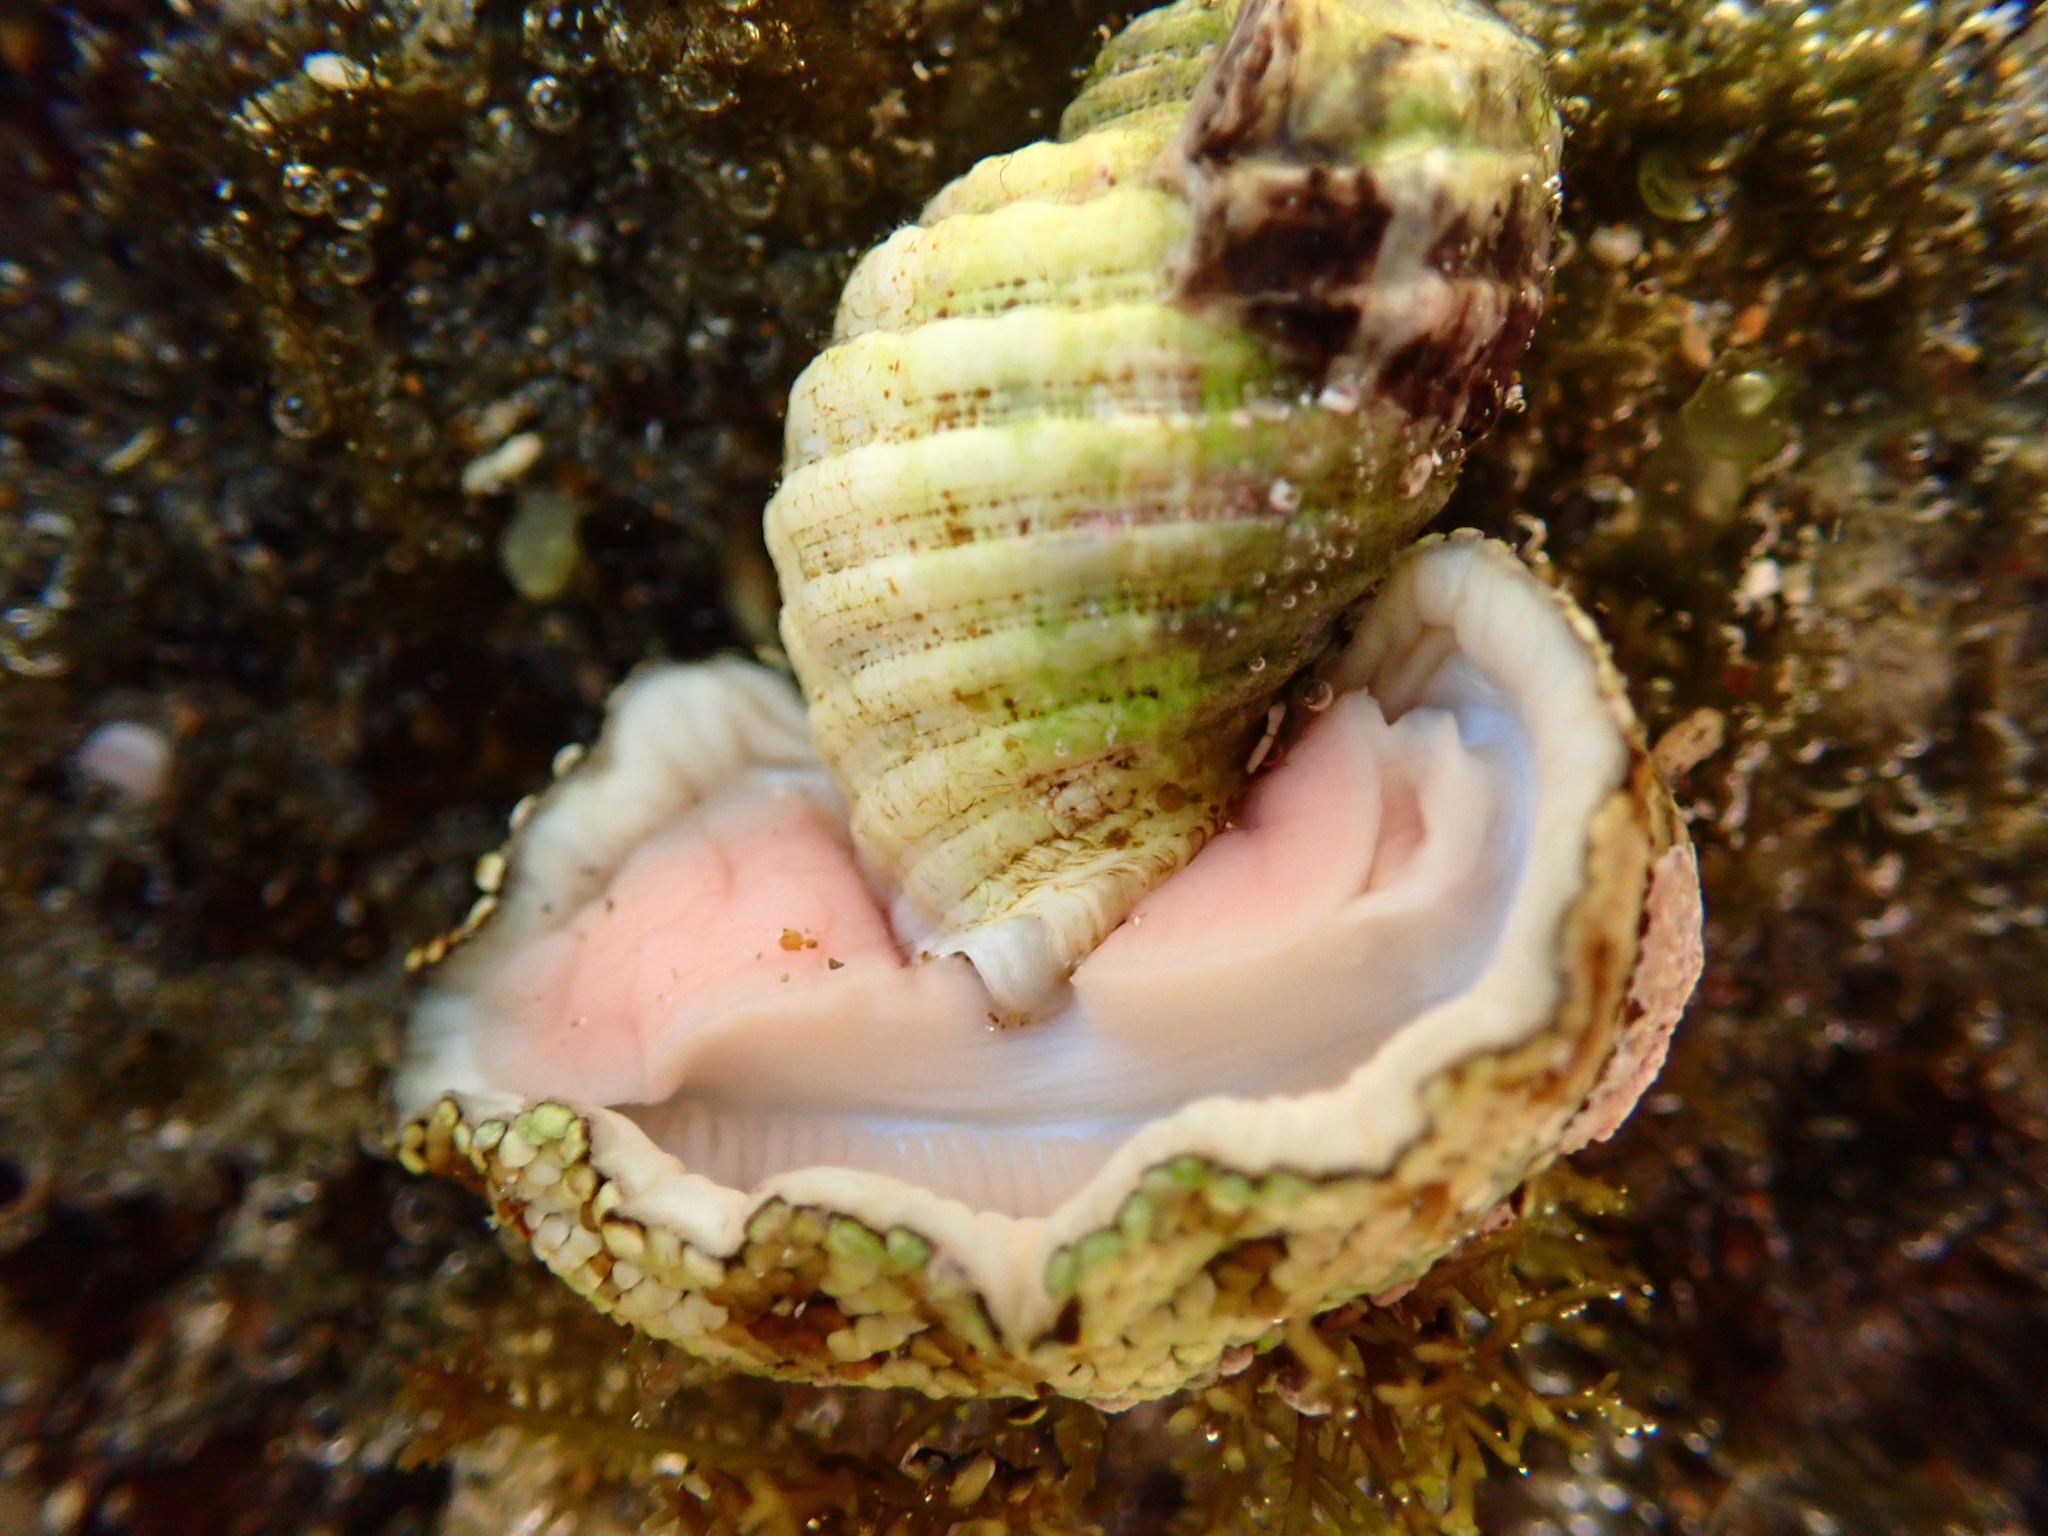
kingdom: Animalia
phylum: Mollusca
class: Gastropoda
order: Neogastropoda
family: Muricidae
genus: Dicathais
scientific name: Dicathais orbita
